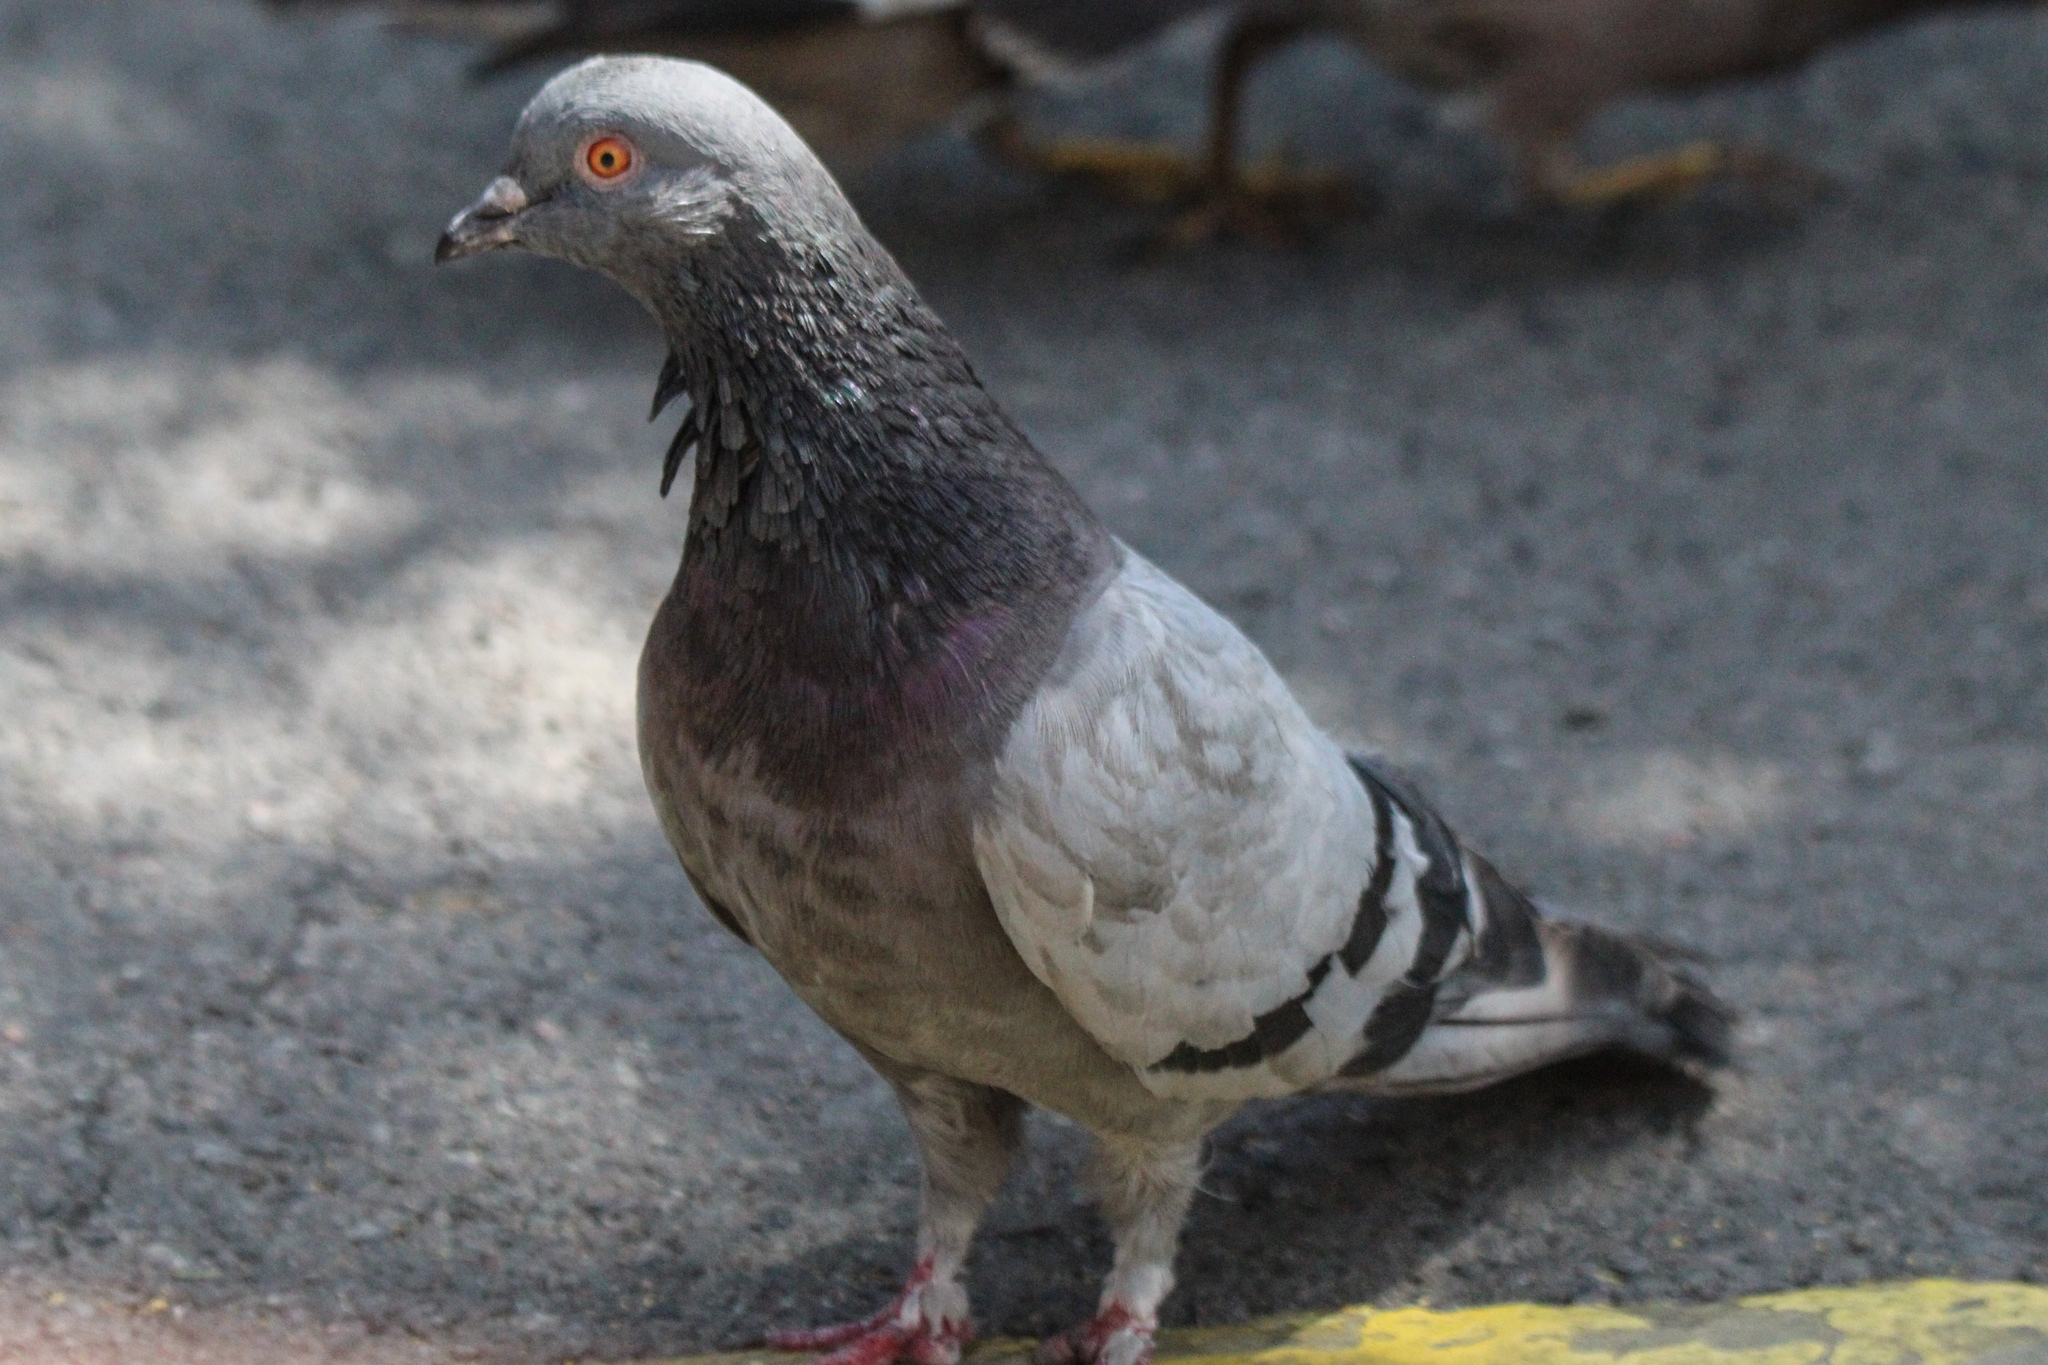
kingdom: Animalia
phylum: Chordata
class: Aves
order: Columbiformes
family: Columbidae
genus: Columba
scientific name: Columba livia
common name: Rock pigeon
